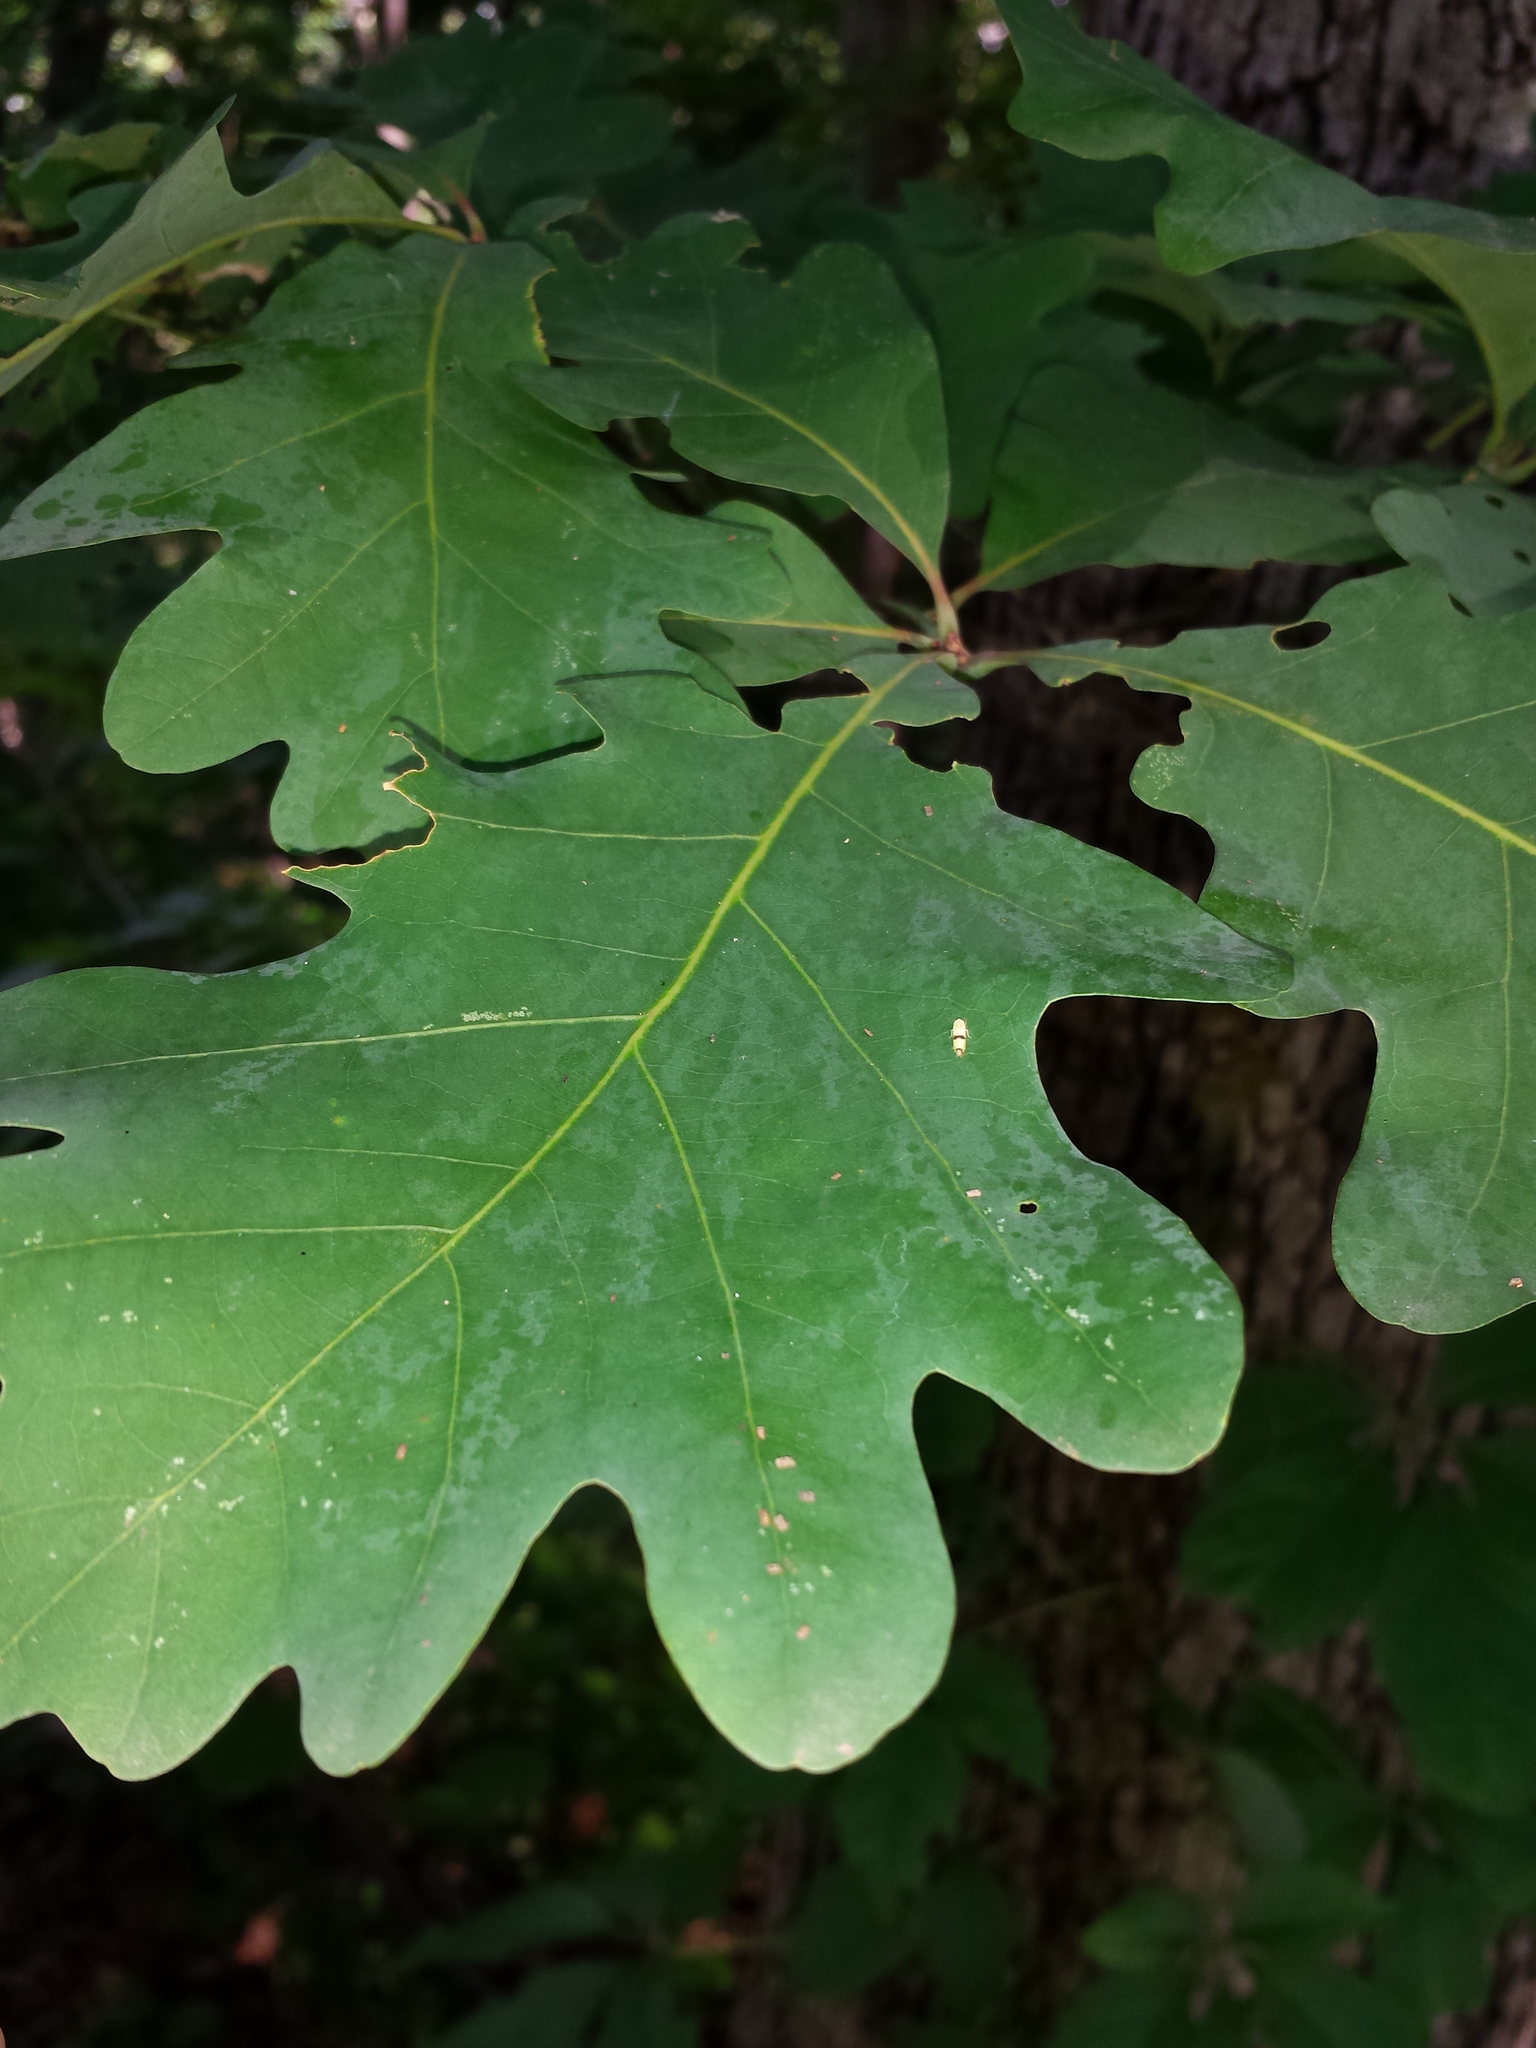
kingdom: Plantae
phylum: Tracheophyta
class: Magnoliopsida
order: Fagales
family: Fagaceae
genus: Quercus
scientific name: Quercus alba
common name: White oak
